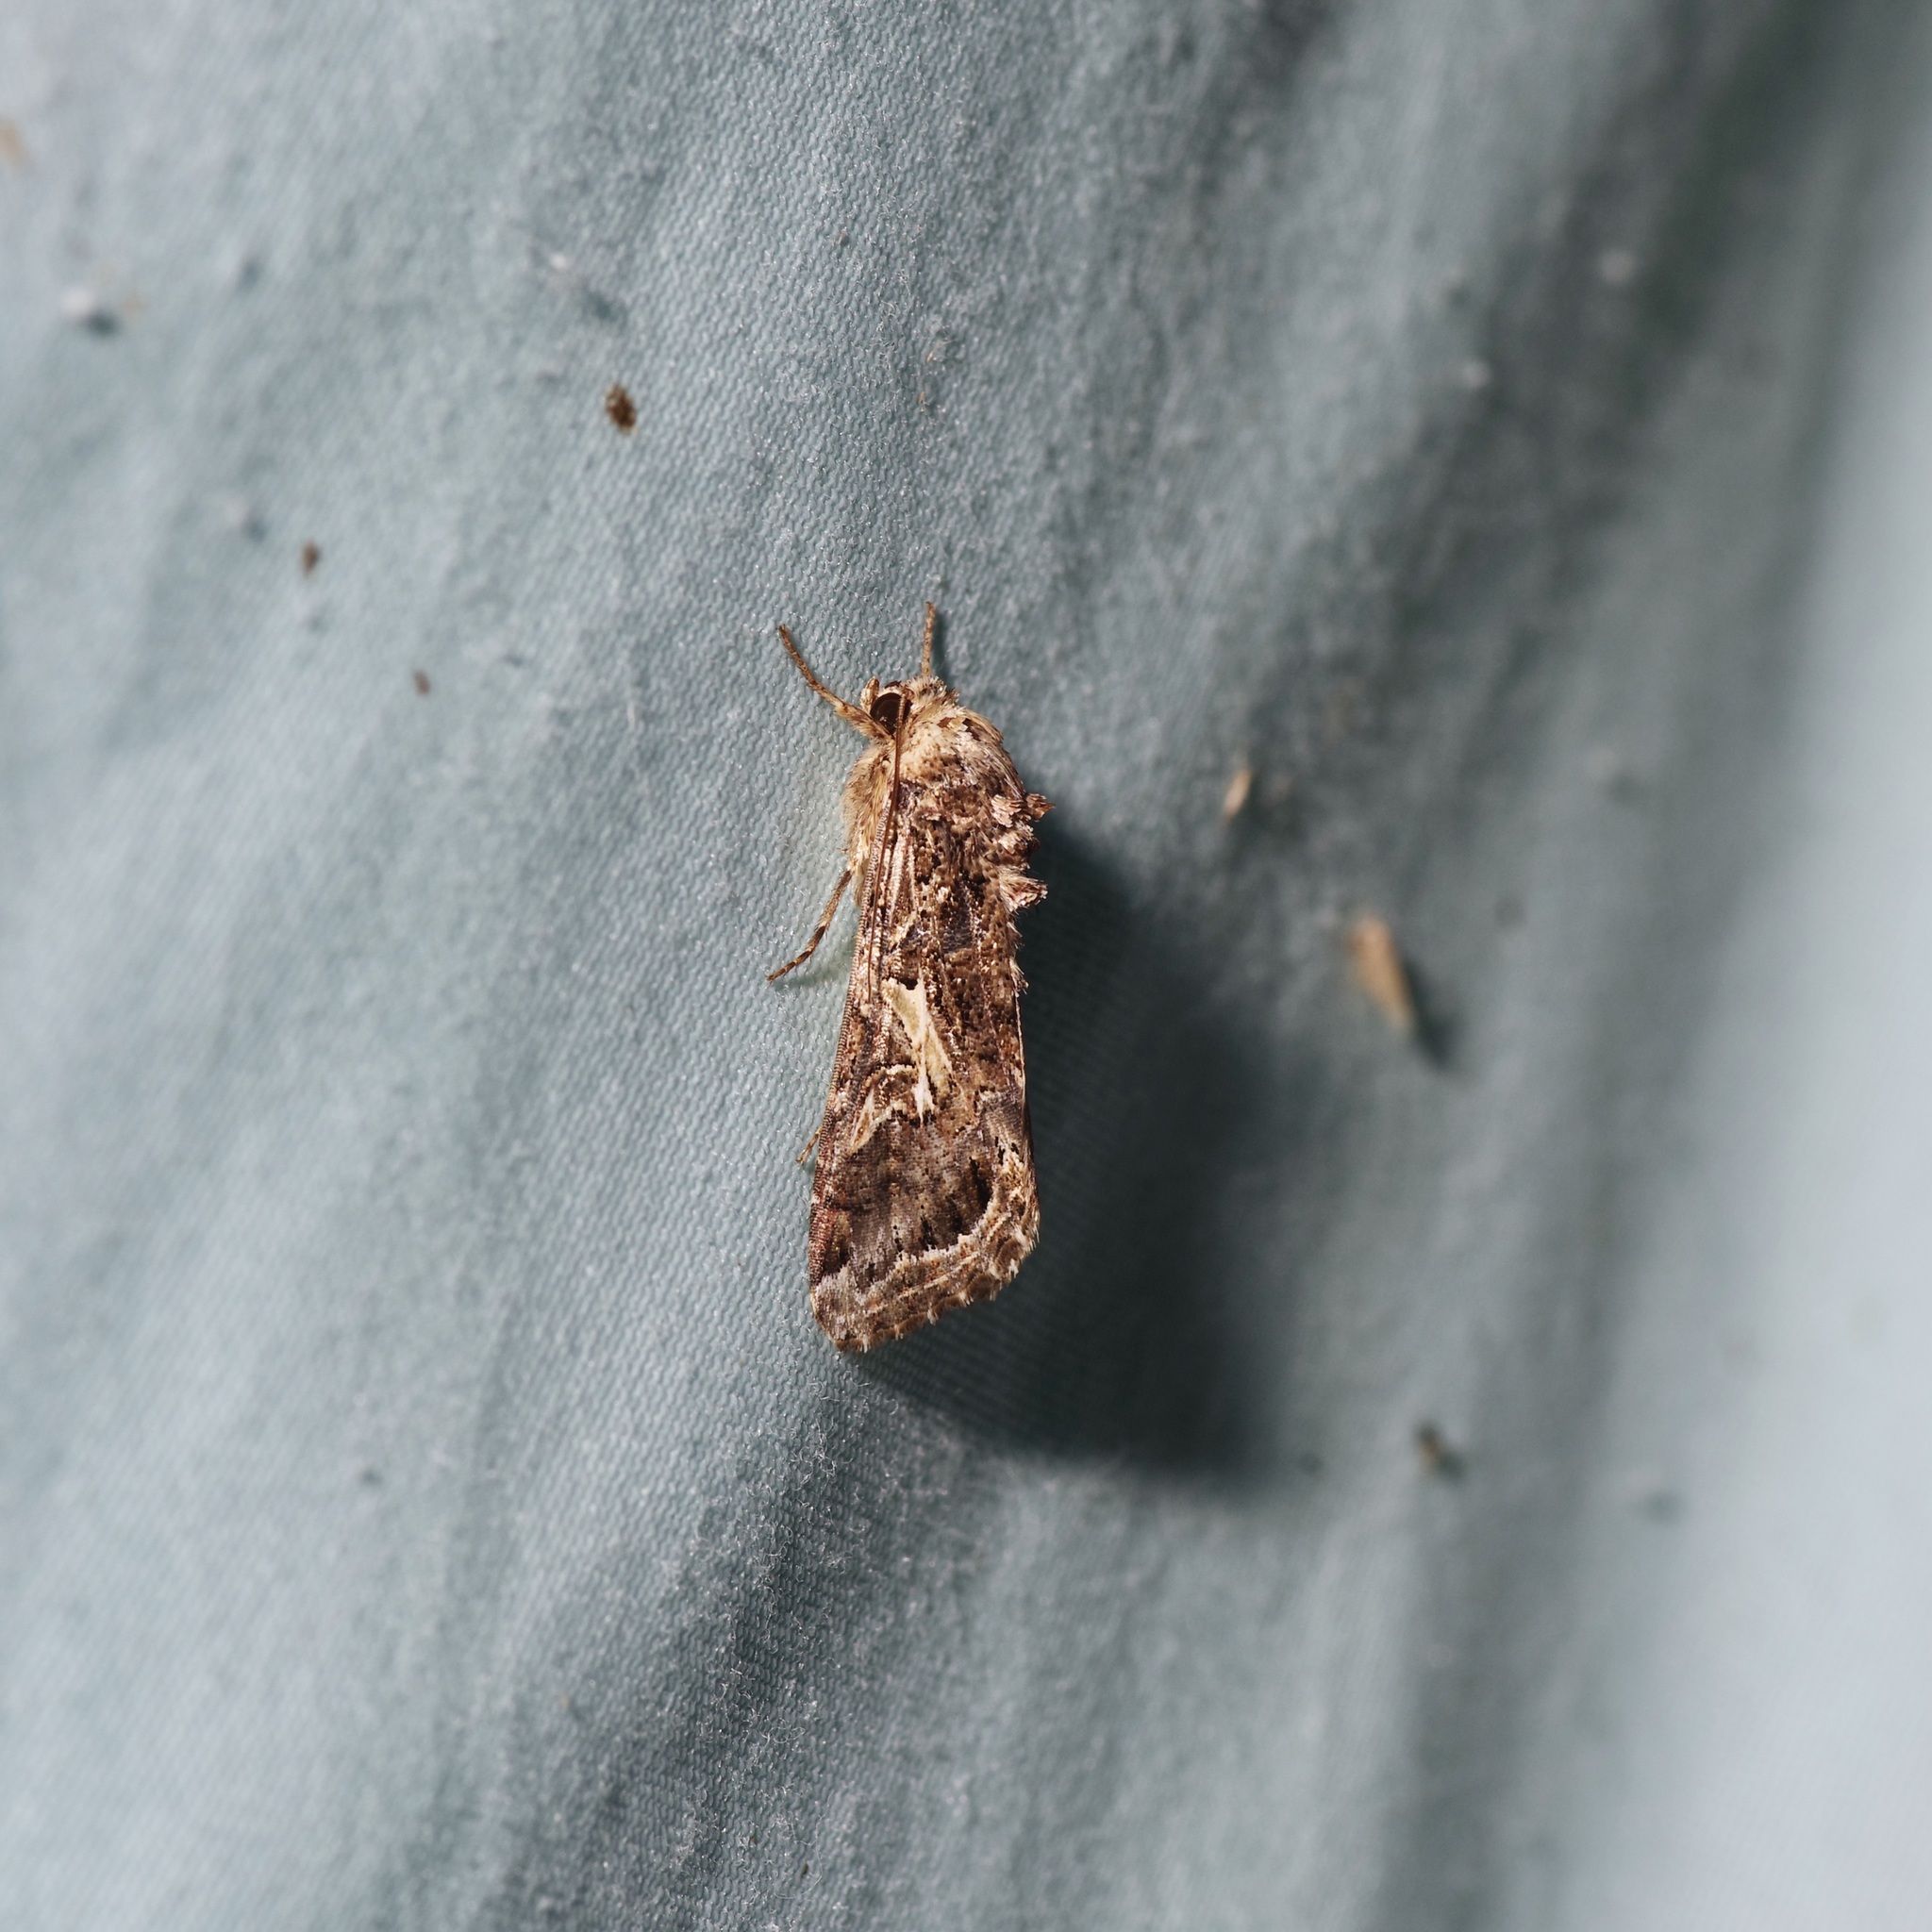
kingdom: Animalia
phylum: Arthropoda
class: Insecta
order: Lepidoptera
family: Noctuidae
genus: Spodoptera
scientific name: Spodoptera ornithogalli
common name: Yellow-striped armyworm
